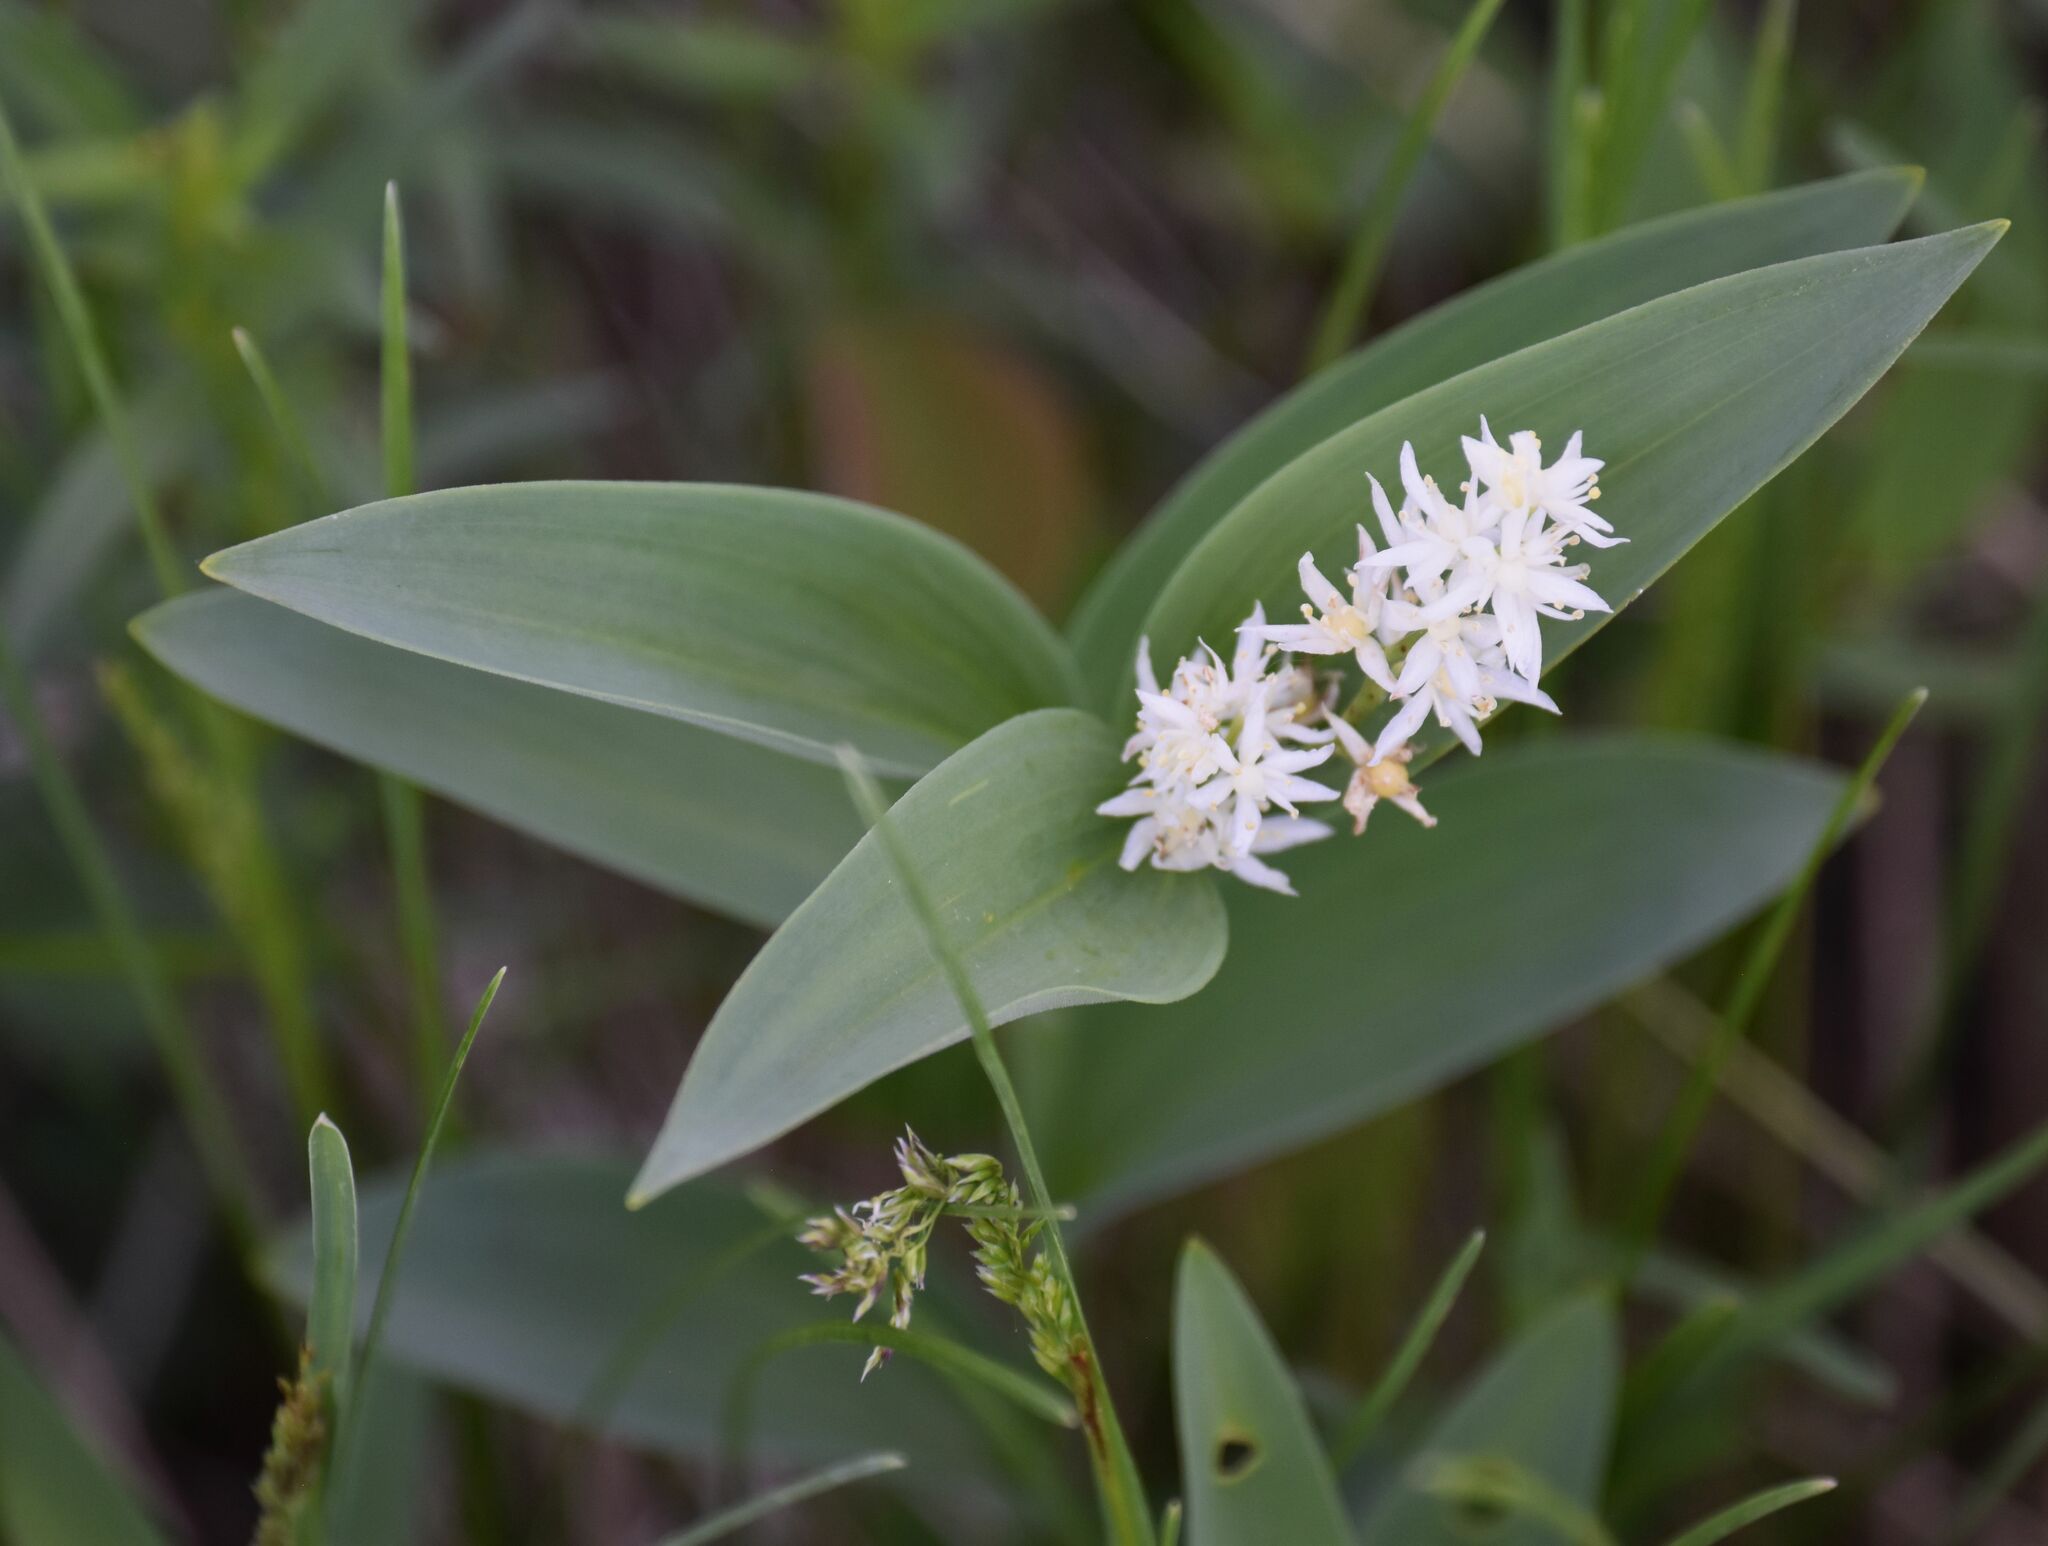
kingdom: Plantae
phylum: Tracheophyta
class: Liliopsida
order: Asparagales
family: Asparagaceae
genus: Maianthemum
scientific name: Maianthemum stellatum
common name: Little false solomon's seal
